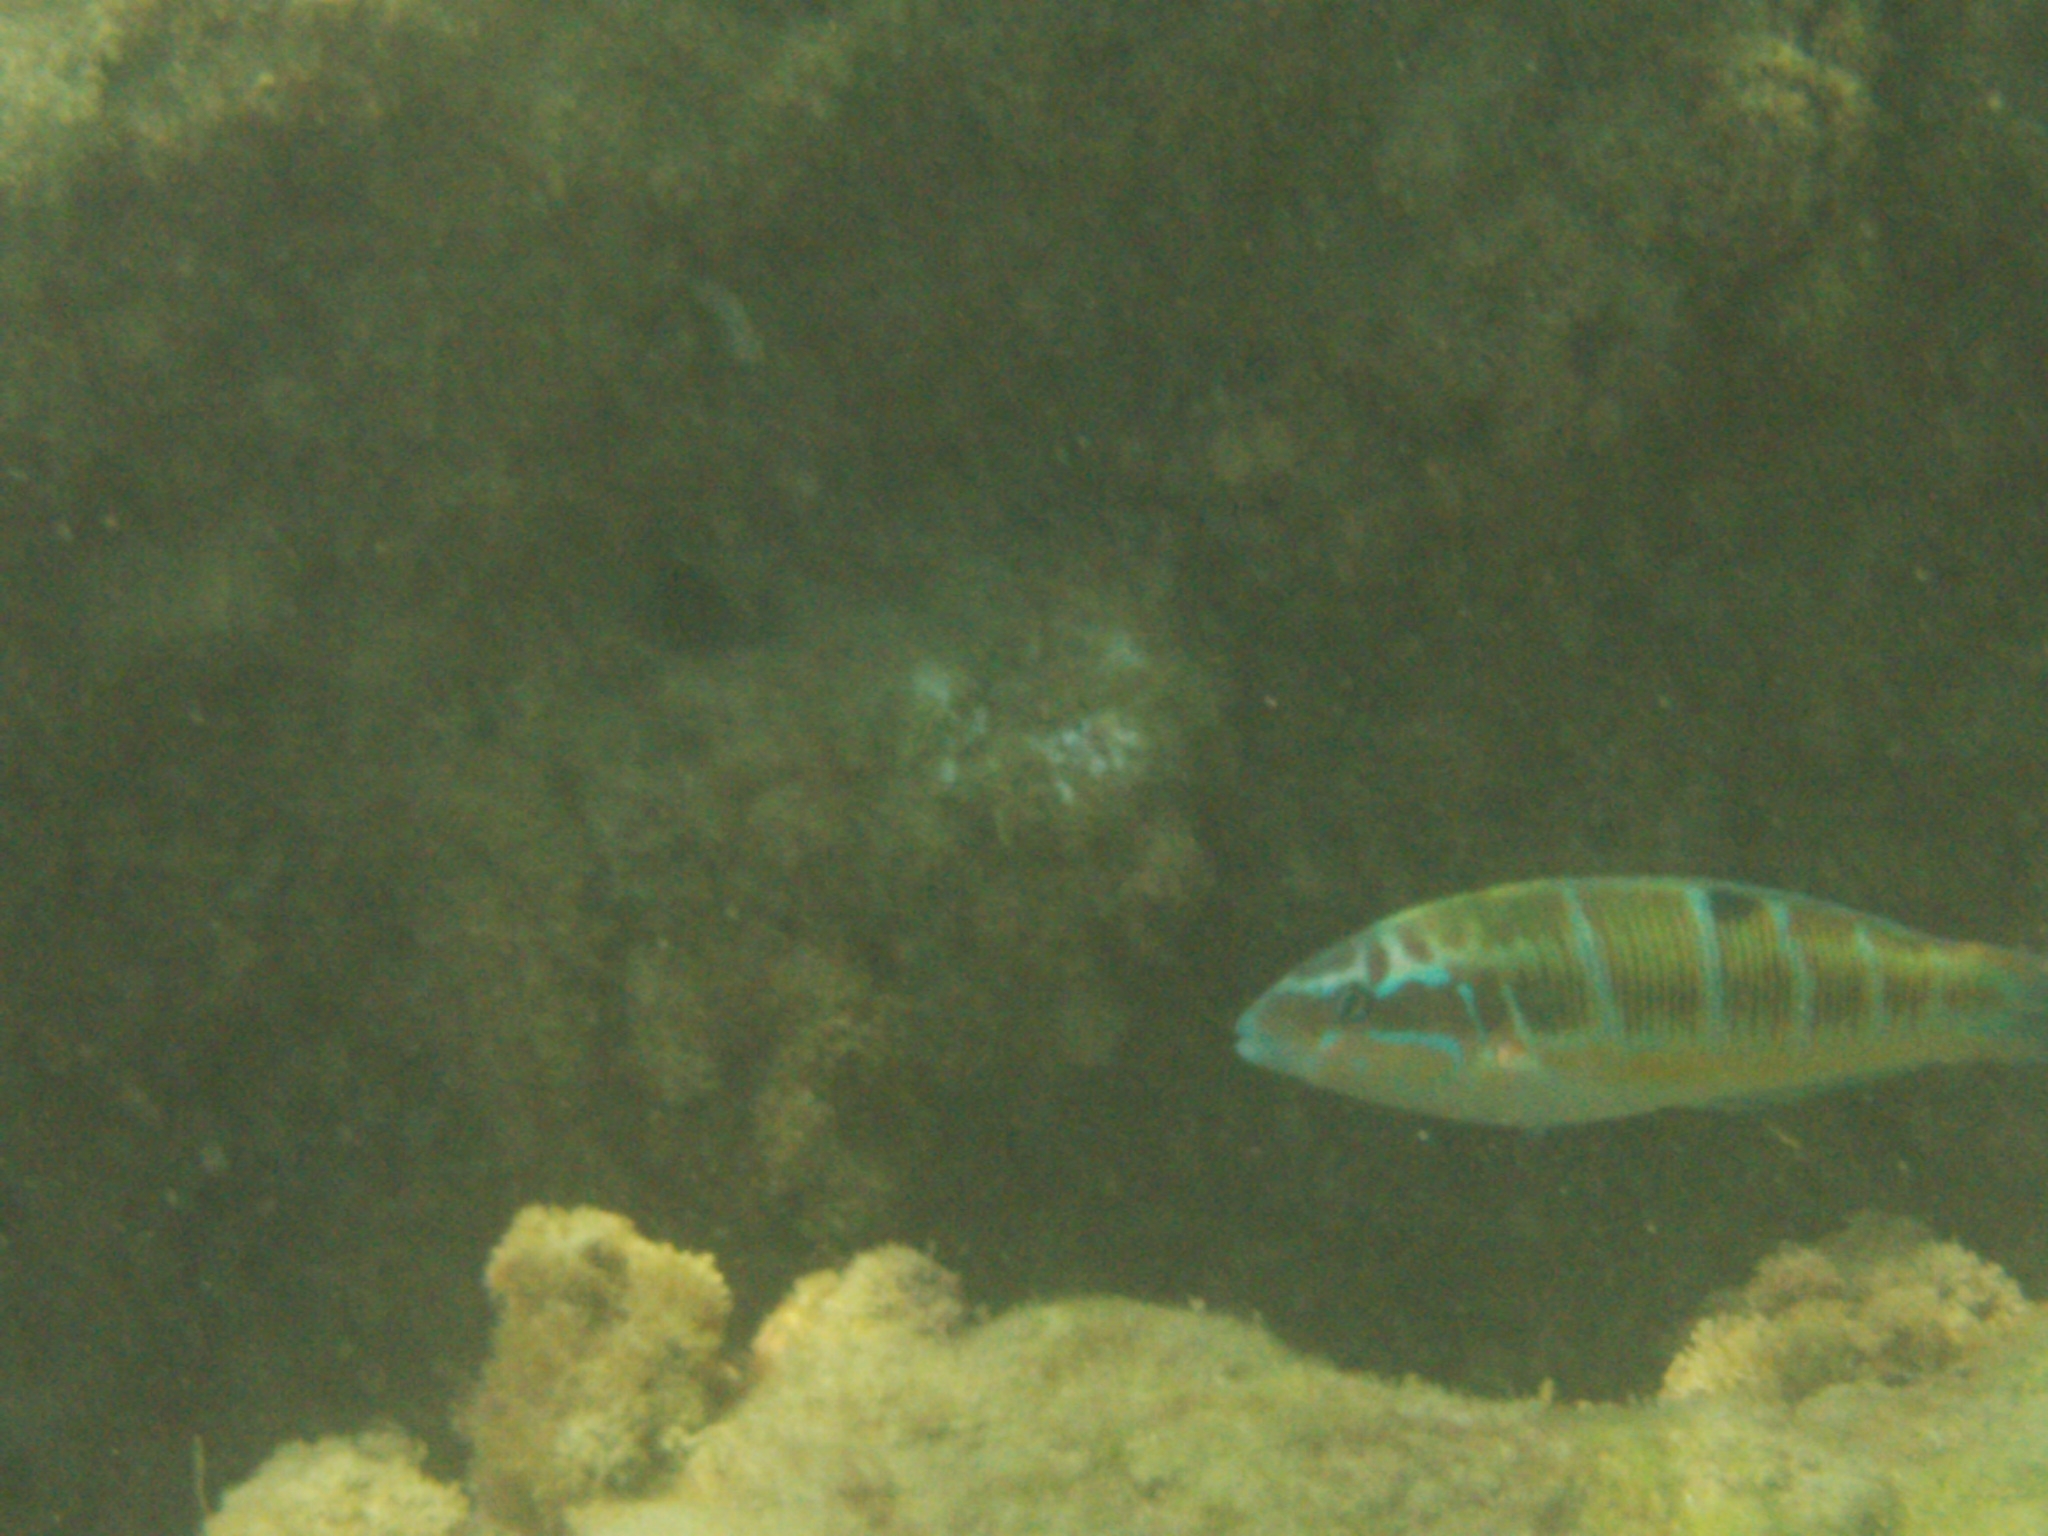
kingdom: Animalia
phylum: Chordata
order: Perciformes
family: Labridae
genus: Thalassoma
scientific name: Thalassoma pavo
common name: Ornate wrasse
